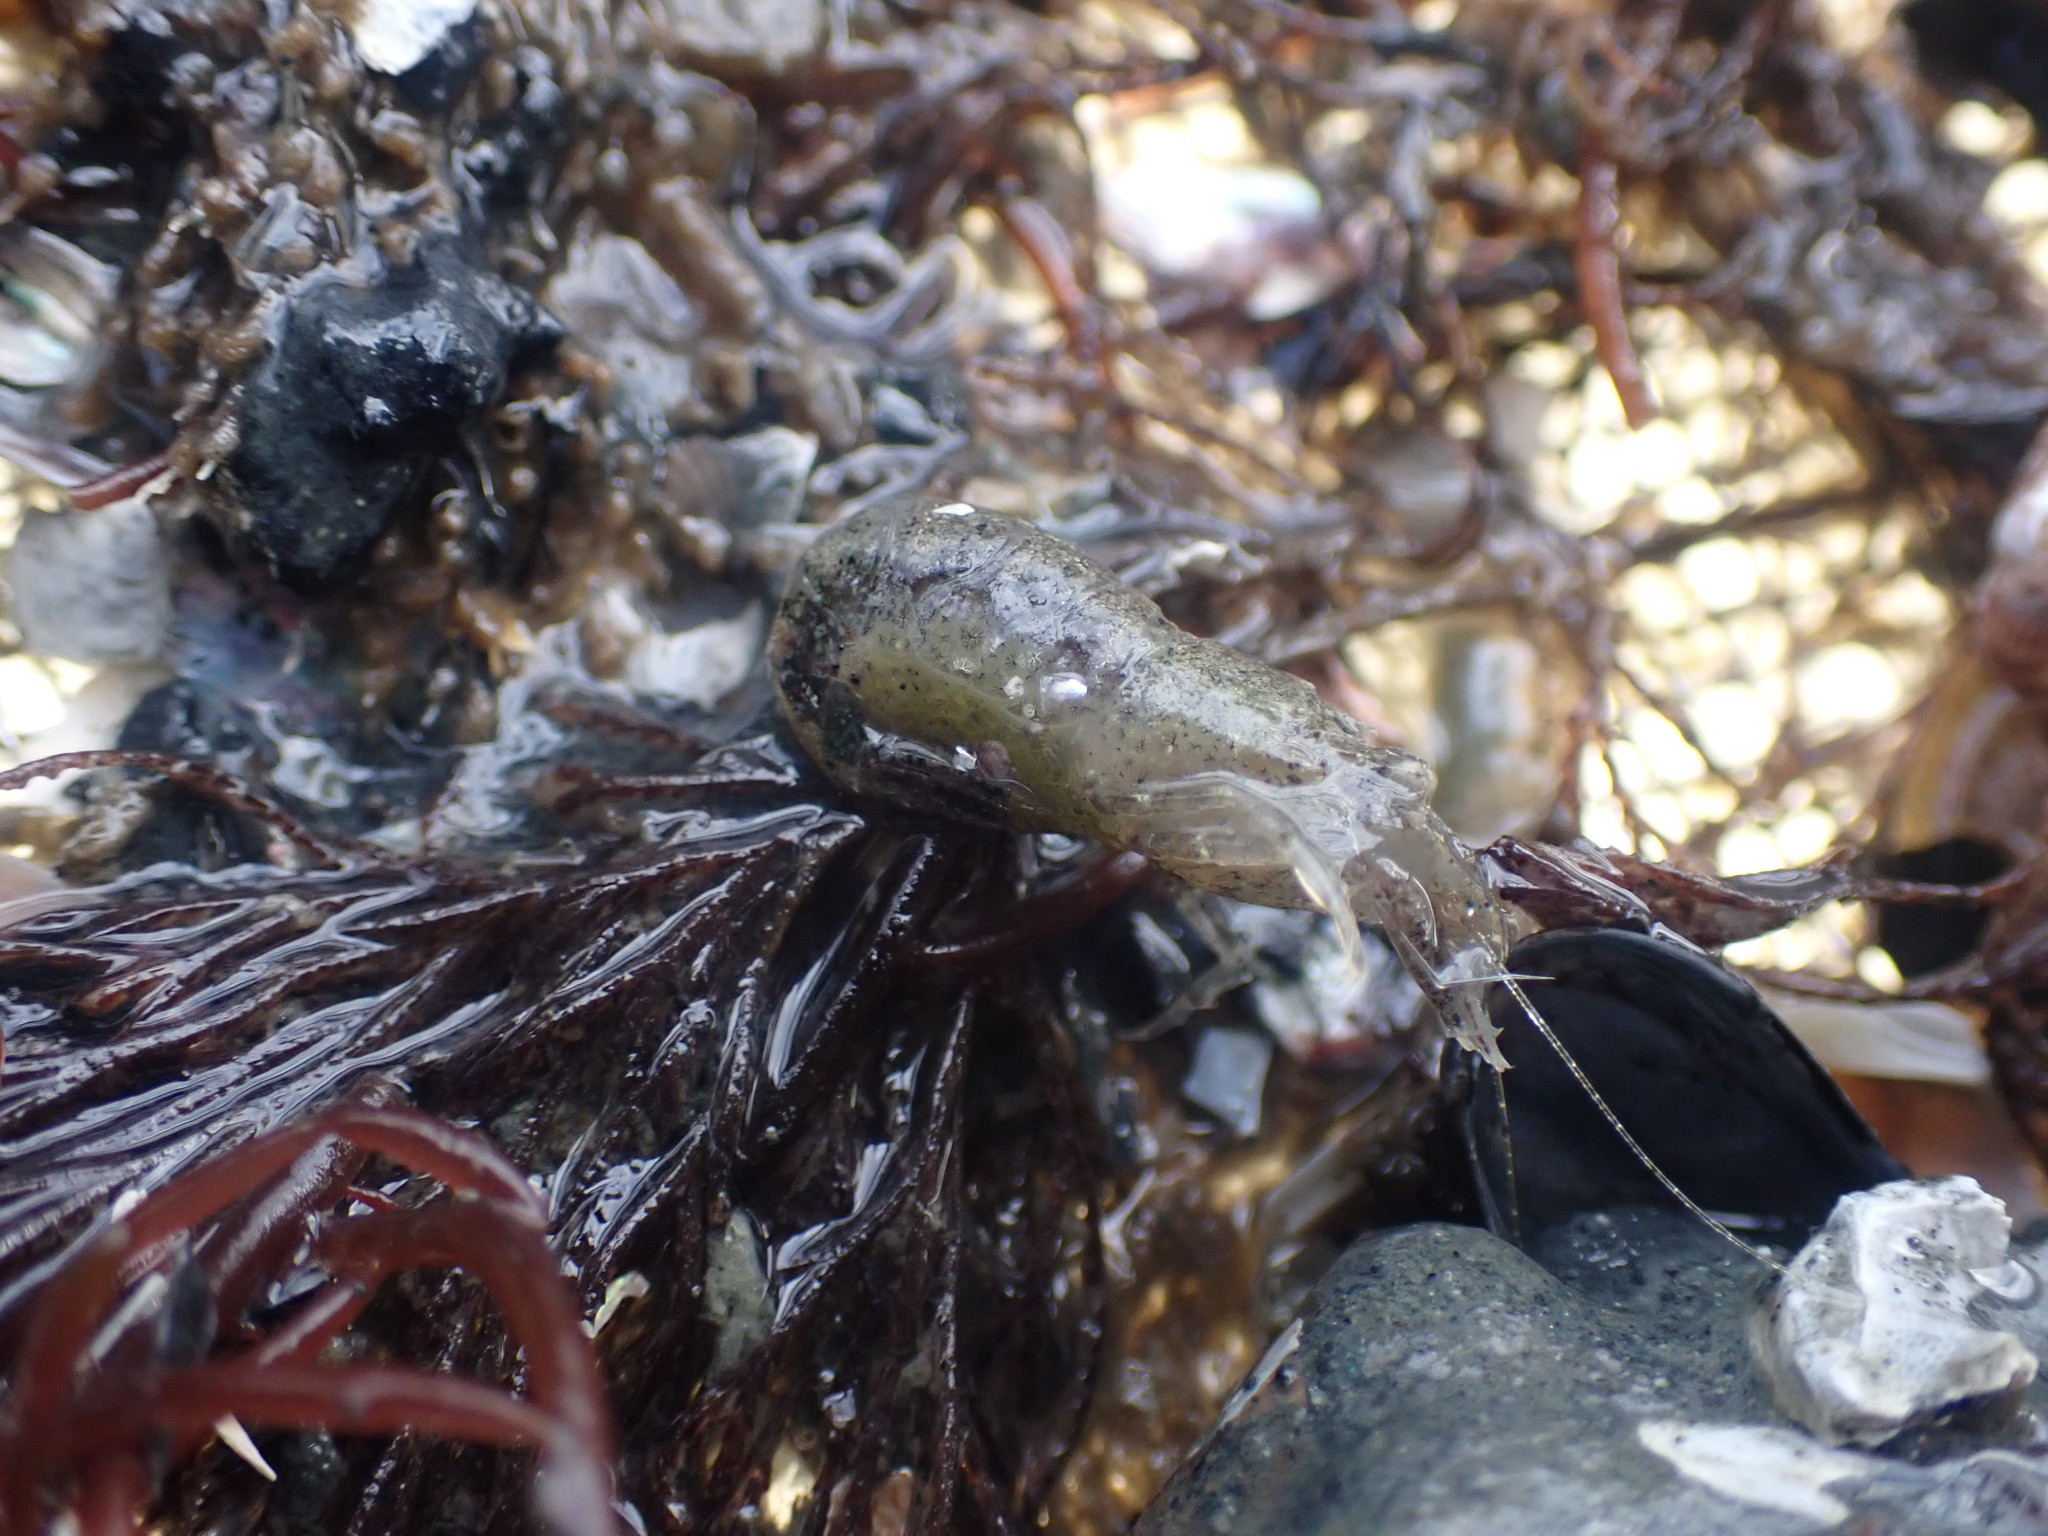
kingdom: Animalia
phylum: Arthropoda
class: Malacostraca
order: Decapoda
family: Crangonidae
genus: Philocheras
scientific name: Philocheras australis
